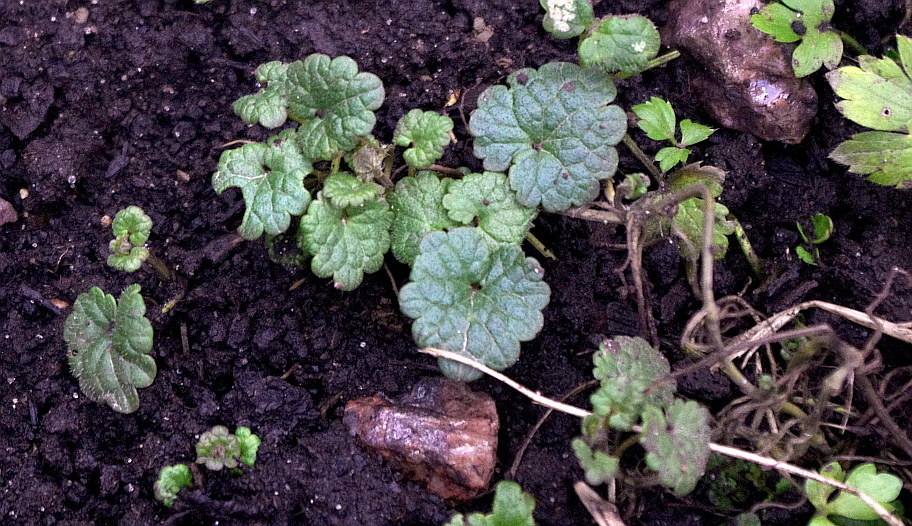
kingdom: Plantae
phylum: Tracheophyta
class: Magnoliopsida
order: Lamiales
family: Lamiaceae
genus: Glechoma
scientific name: Glechoma hederacea
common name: Ground ivy
